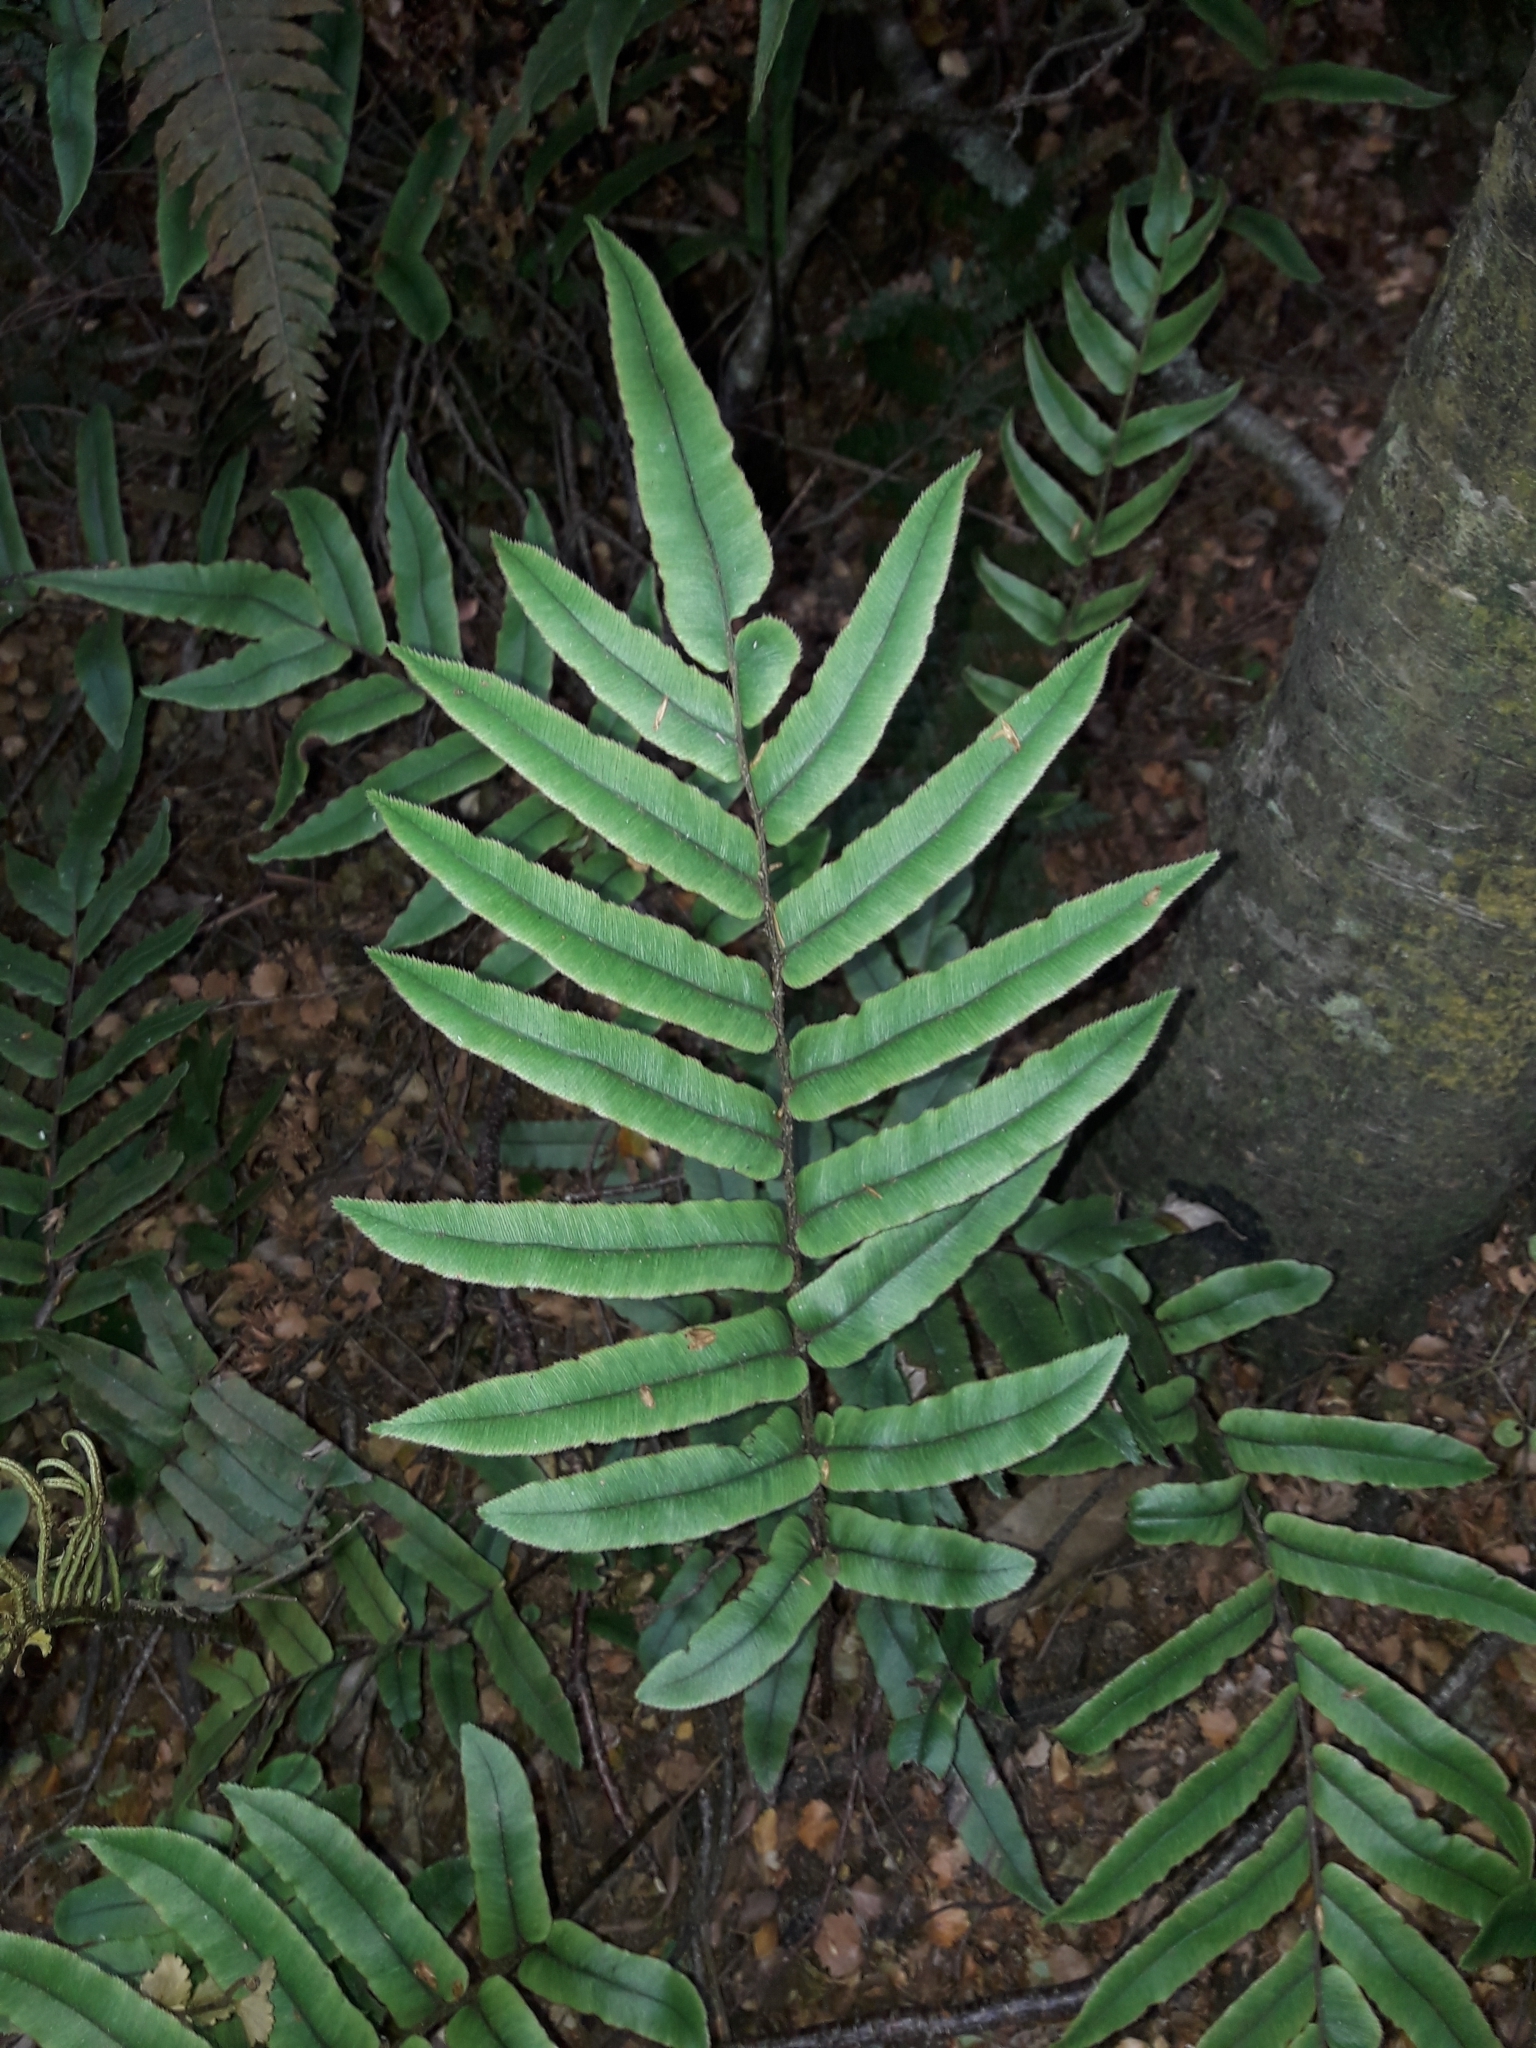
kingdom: Plantae
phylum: Tracheophyta
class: Polypodiopsida
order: Polypodiales
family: Blechnaceae
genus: Parablechnum
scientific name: Parablechnum procerum
